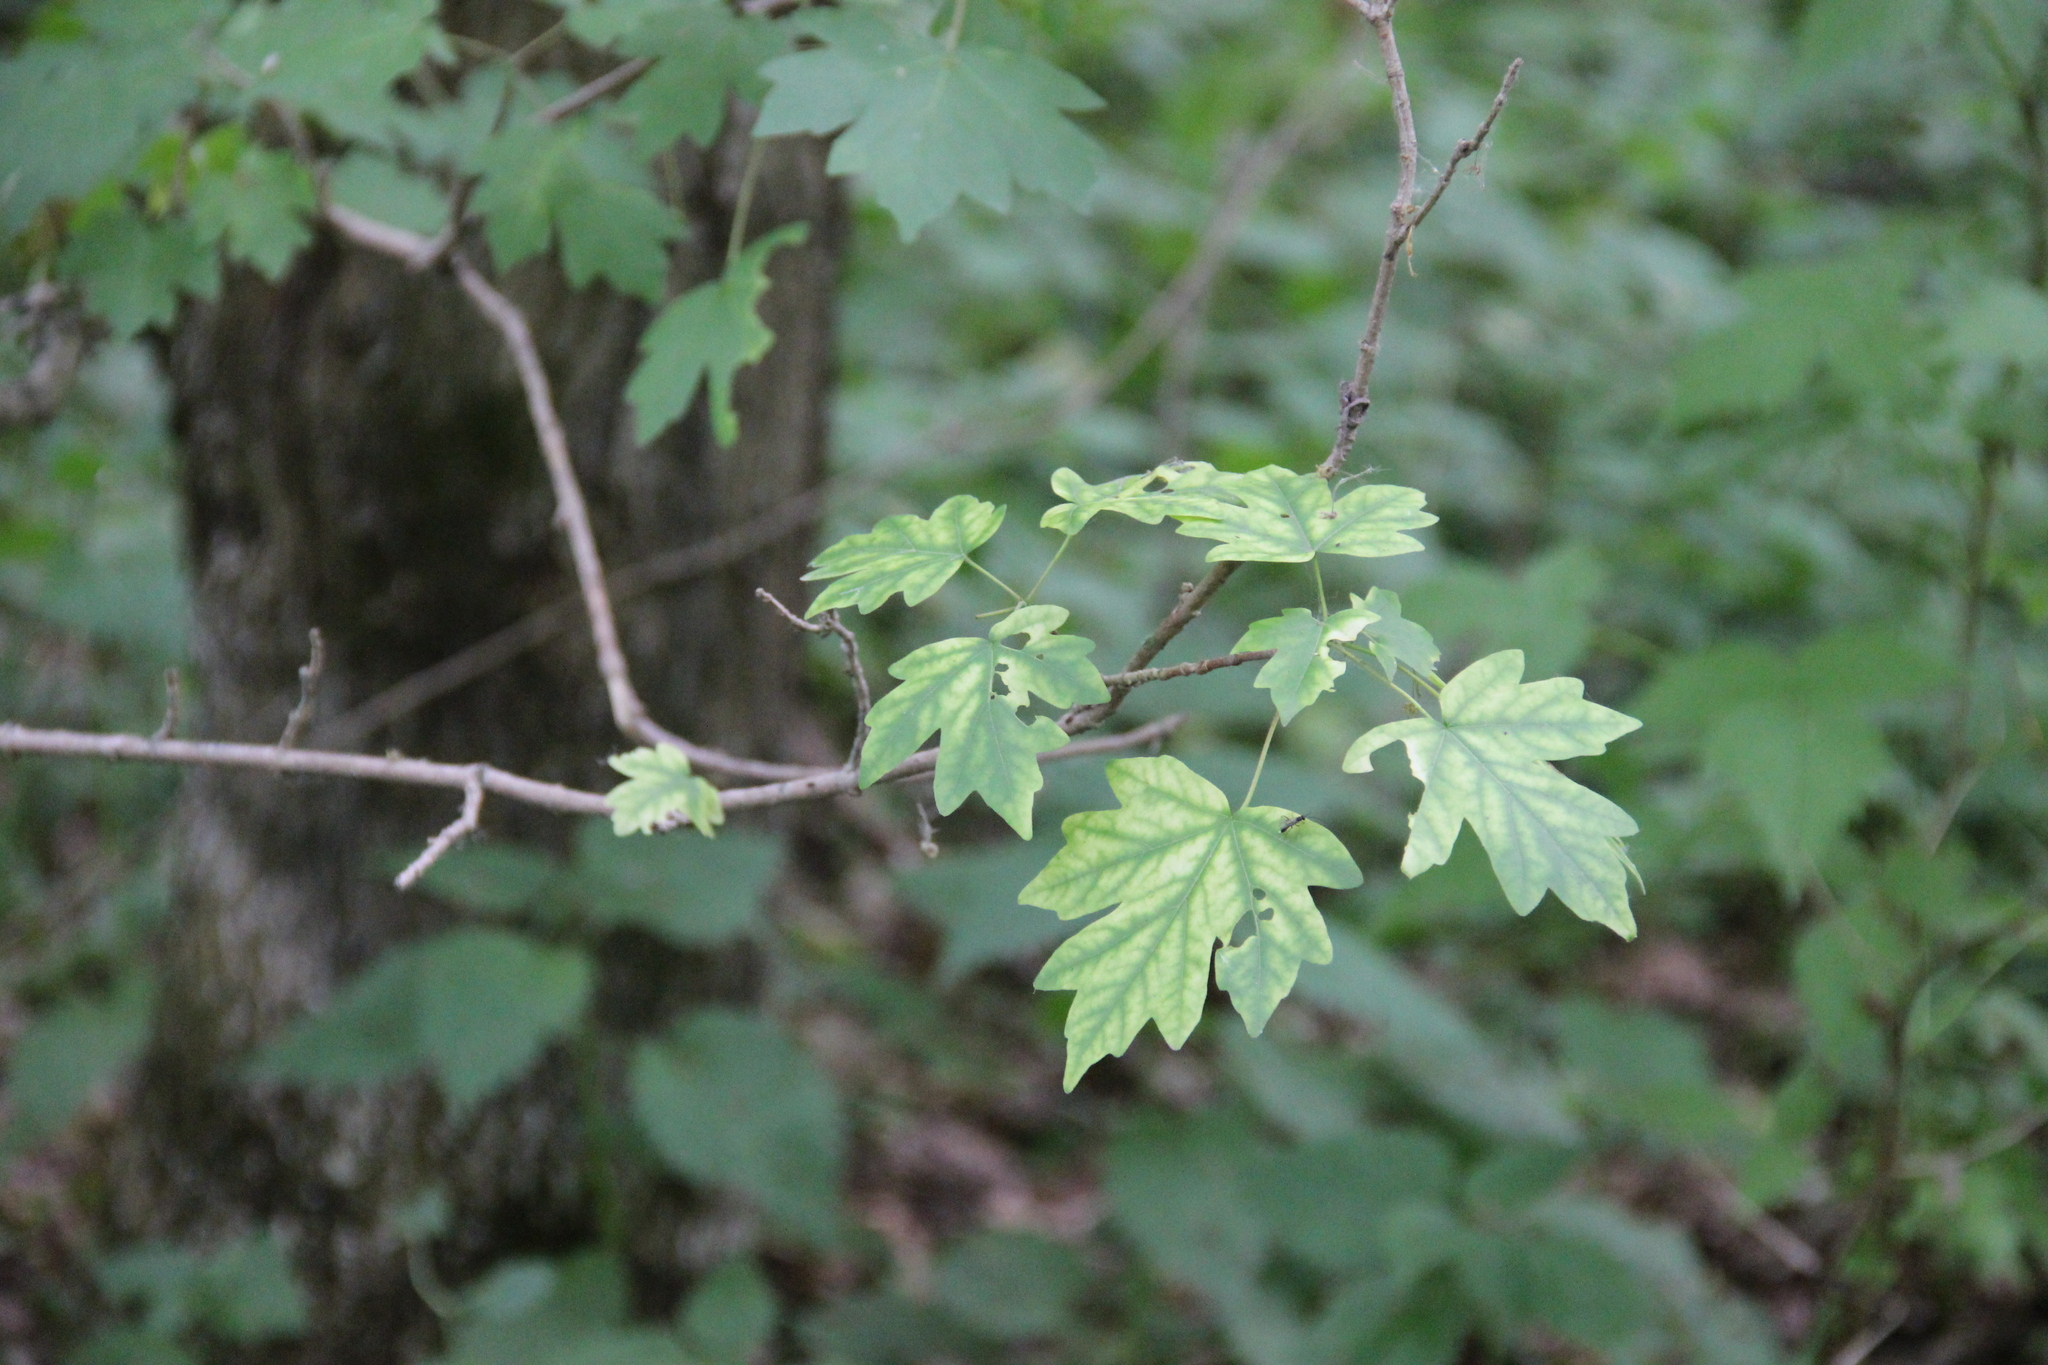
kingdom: Plantae
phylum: Tracheophyta
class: Magnoliopsida
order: Sapindales
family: Sapindaceae
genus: Acer
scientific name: Acer campestre
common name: Field maple
